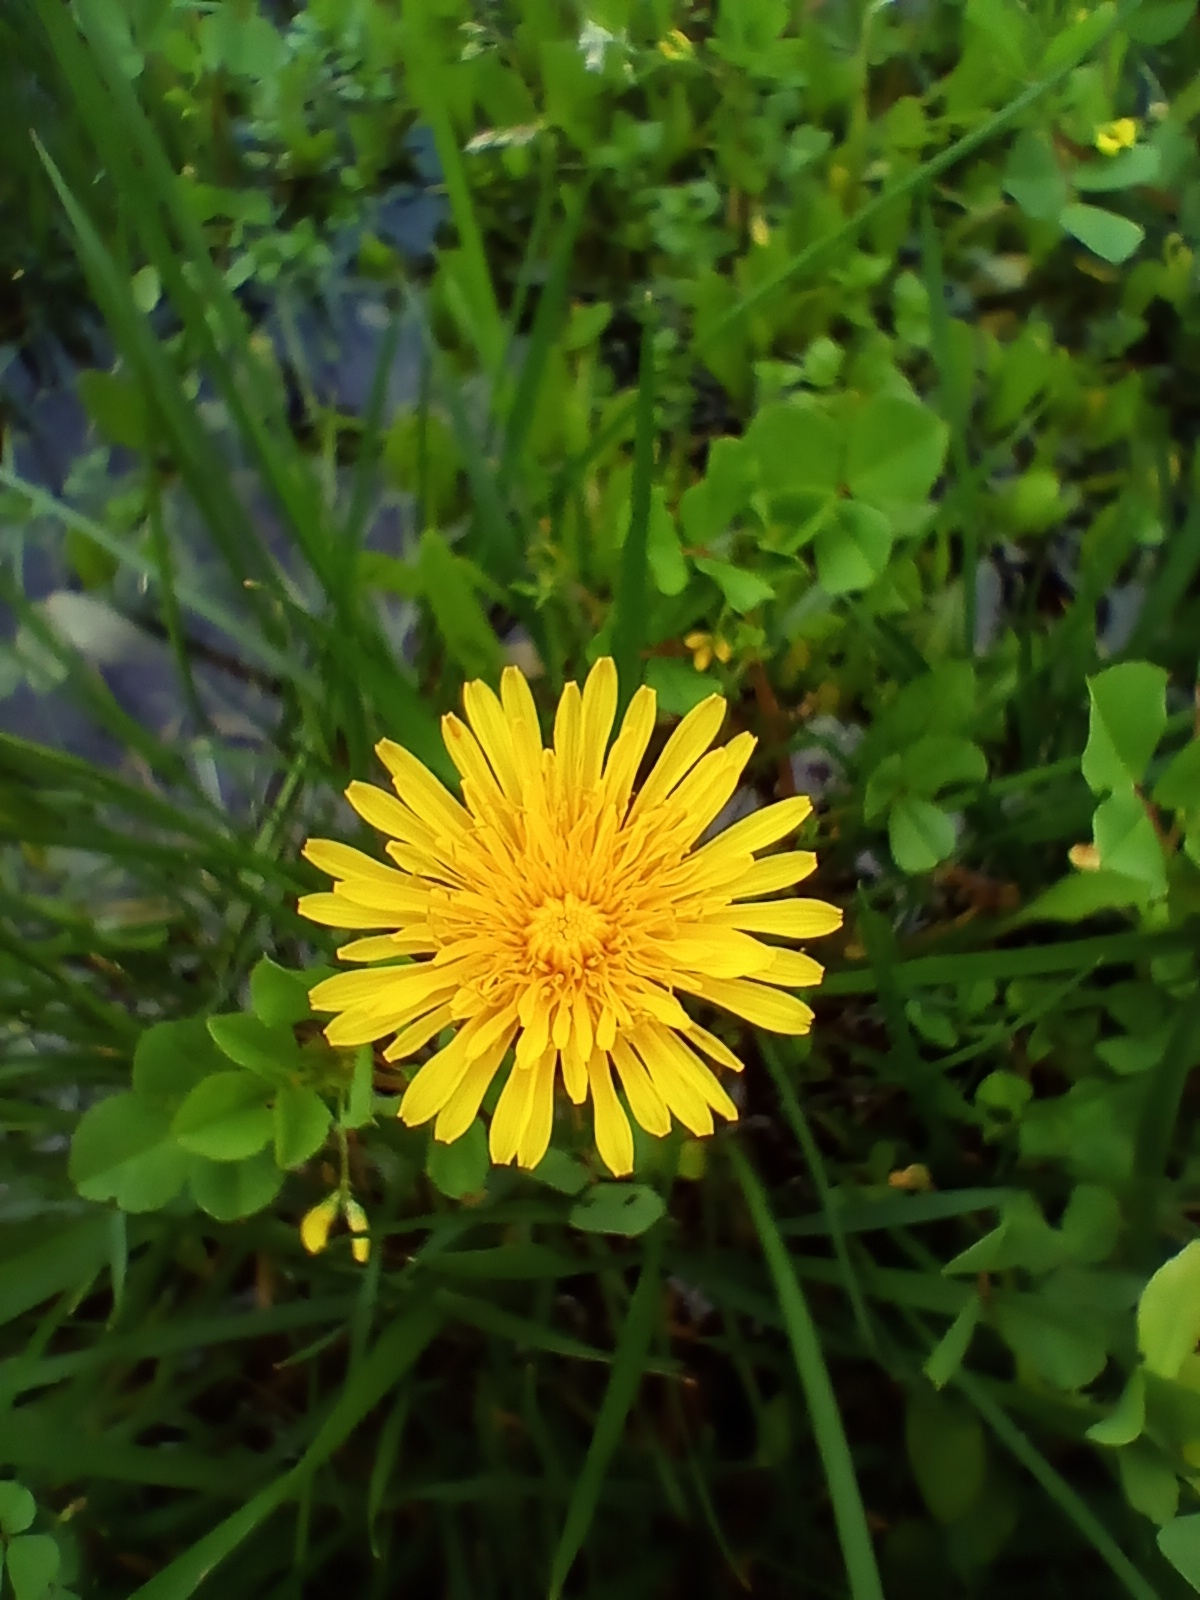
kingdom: Plantae
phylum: Tracheophyta
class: Magnoliopsida
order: Asterales
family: Asteraceae
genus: Taraxacum
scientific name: Taraxacum officinale
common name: Common dandelion
